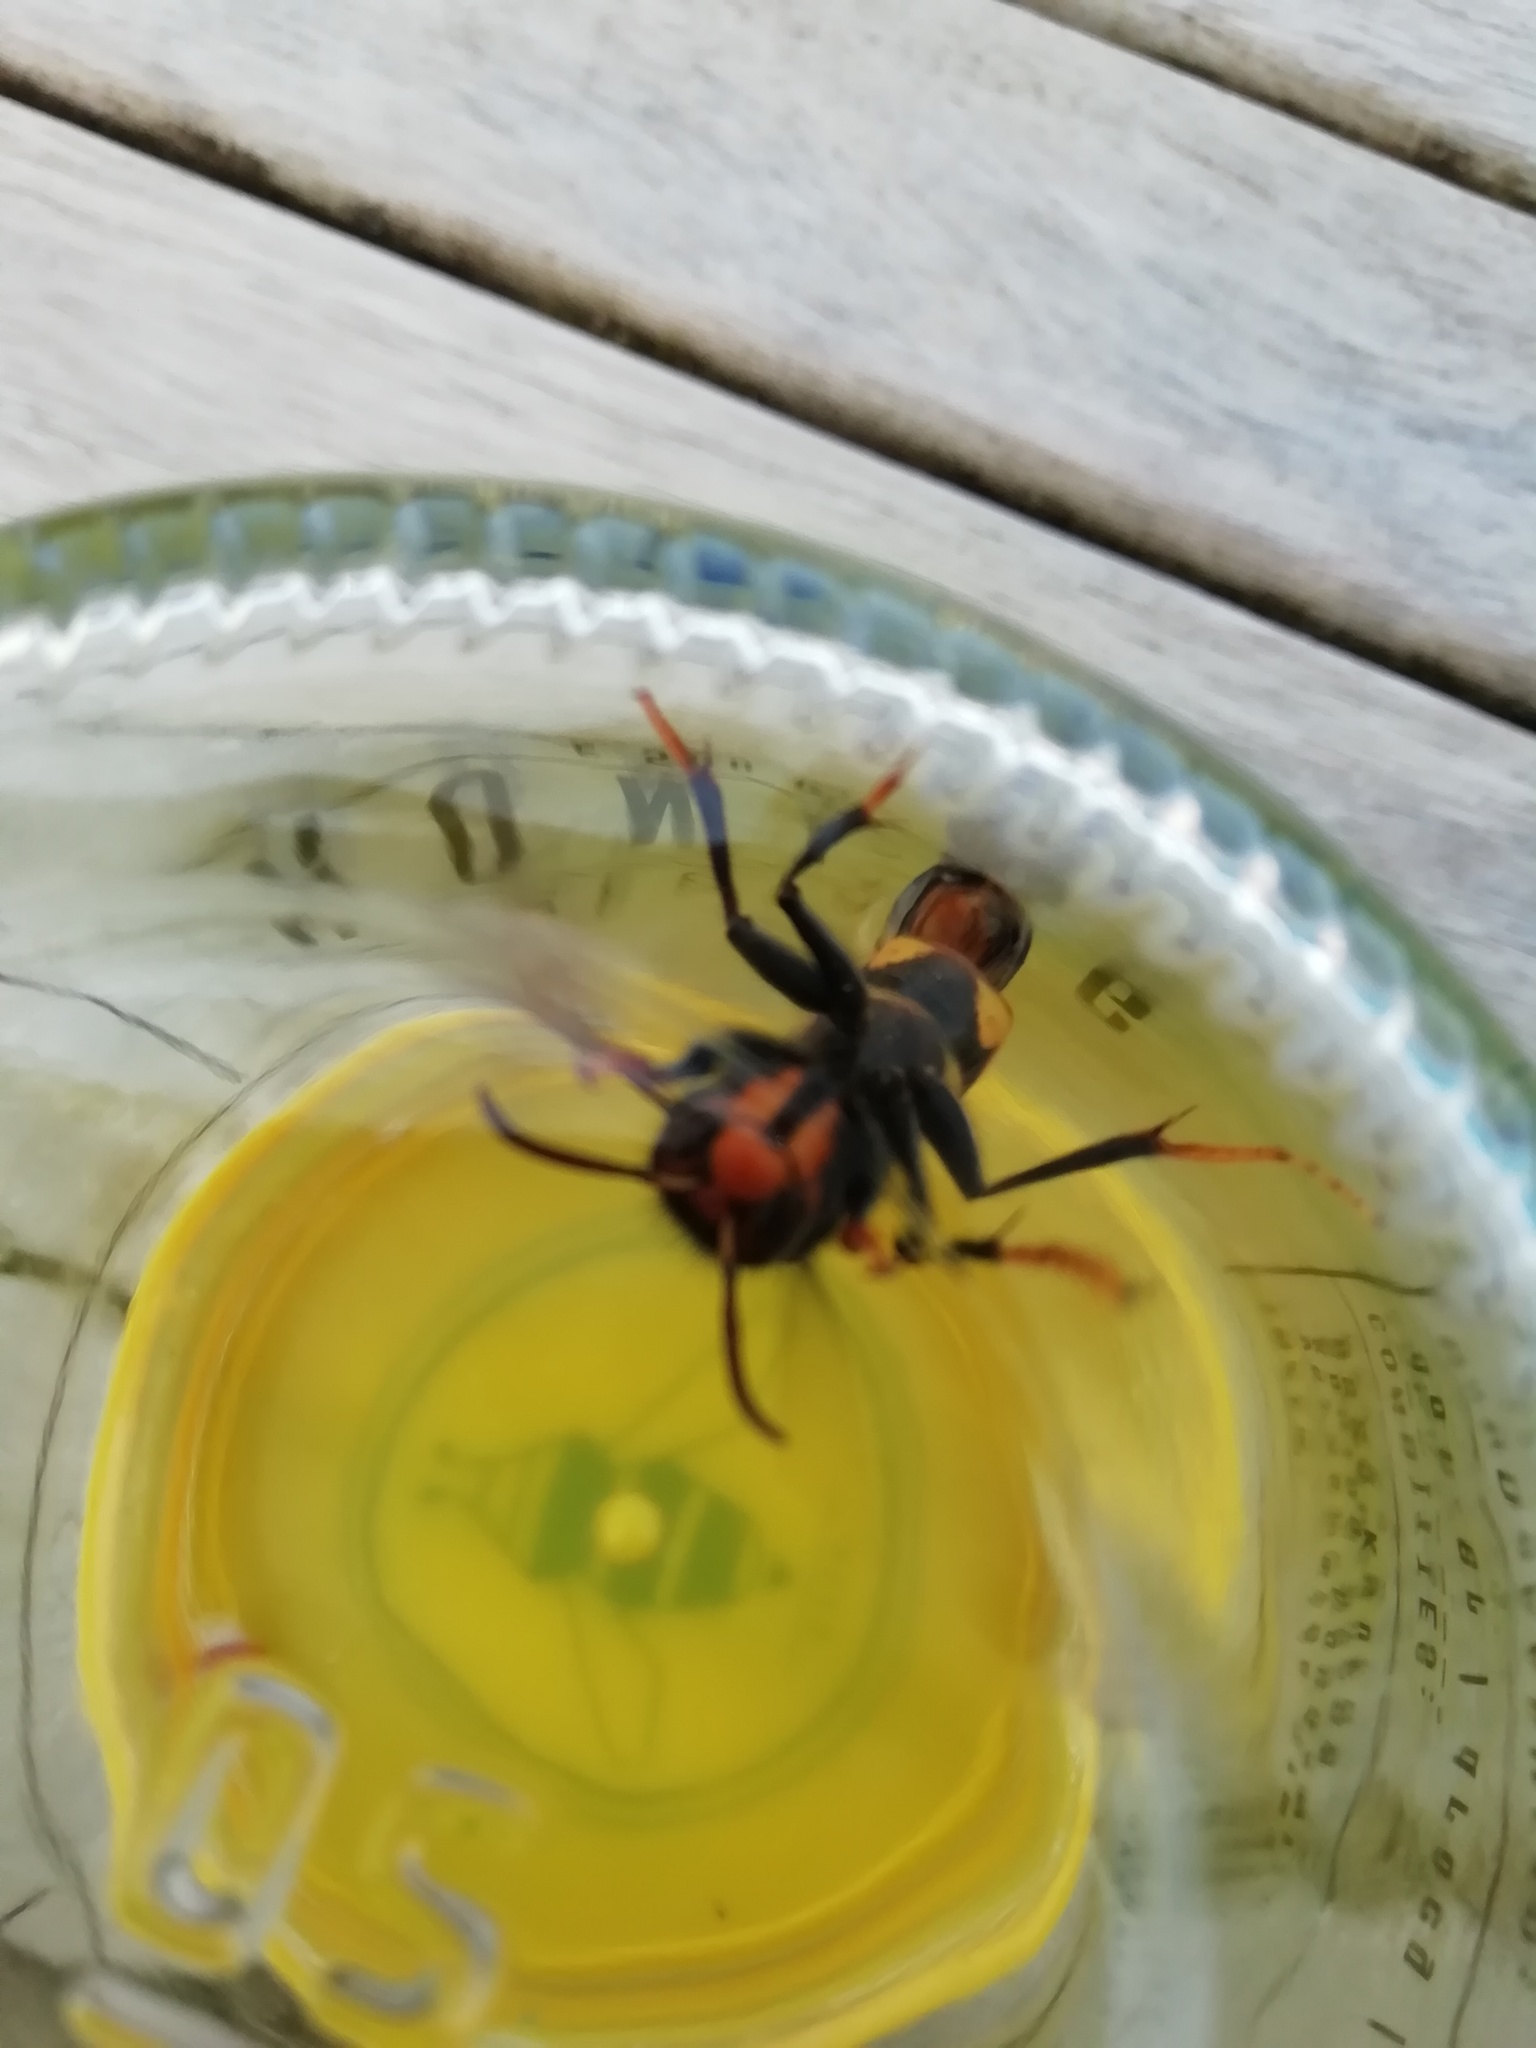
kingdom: Animalia
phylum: Arthropoda
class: Insecta
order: Hymenoptera
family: Vespidae
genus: Vespa
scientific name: Vespa velutina
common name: Asian hornet
